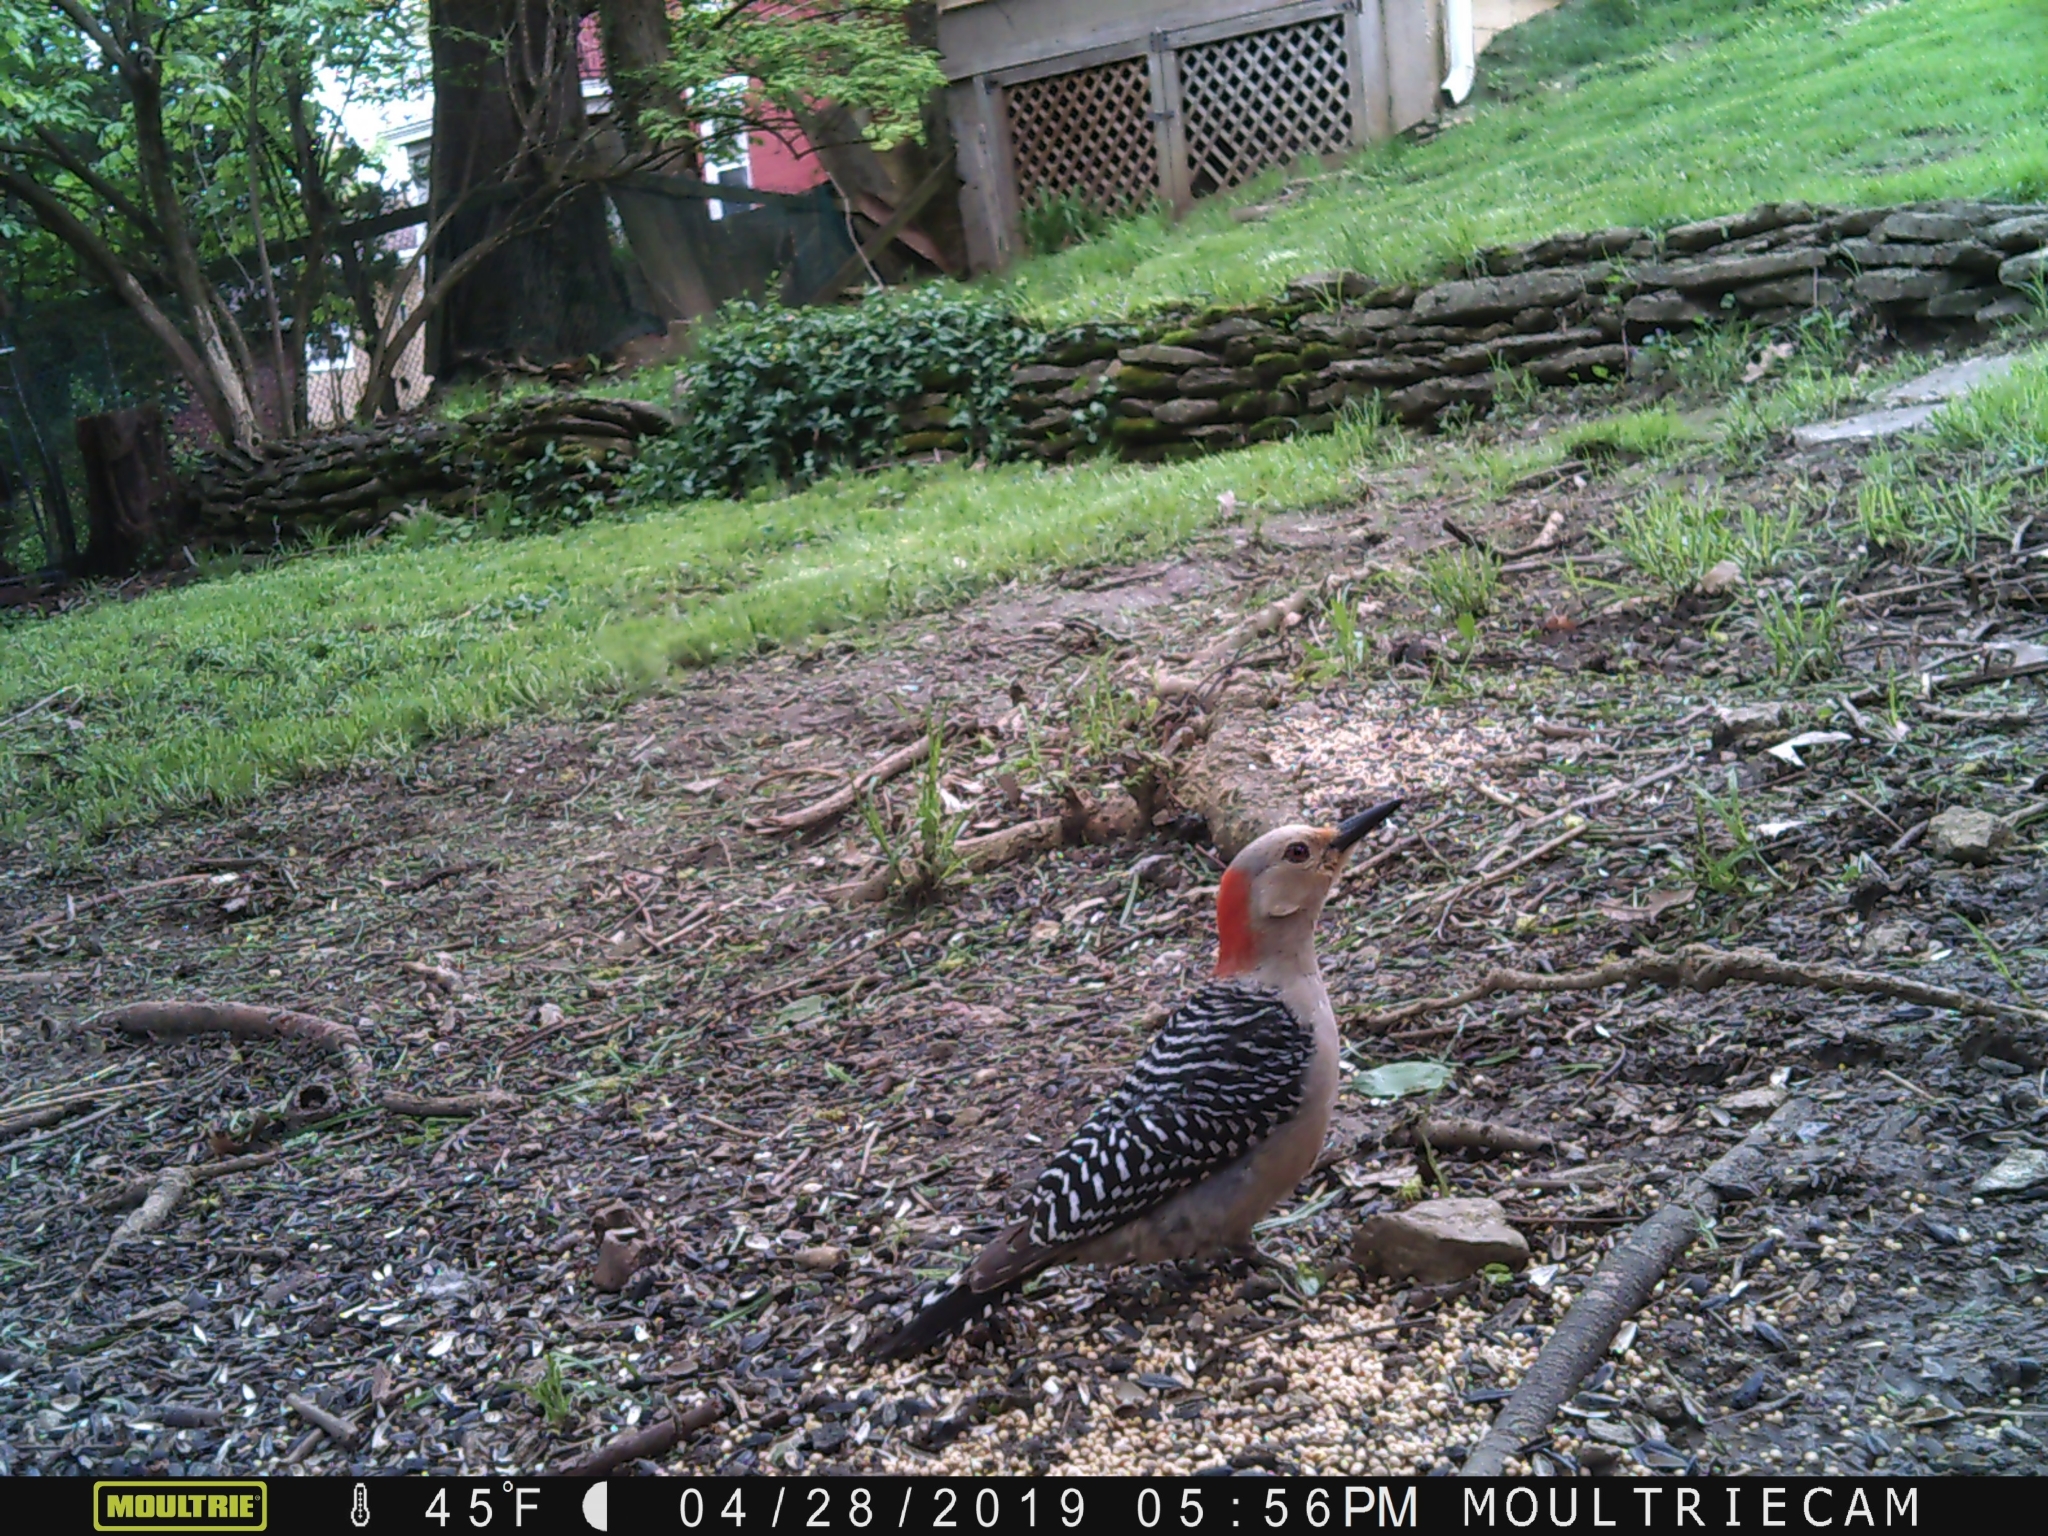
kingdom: Animalia
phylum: Chordata
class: Aves
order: Piciformes
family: Picidae
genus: Melanerpes
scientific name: Melanerpes carolinus
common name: Red-bellied woodpecker
